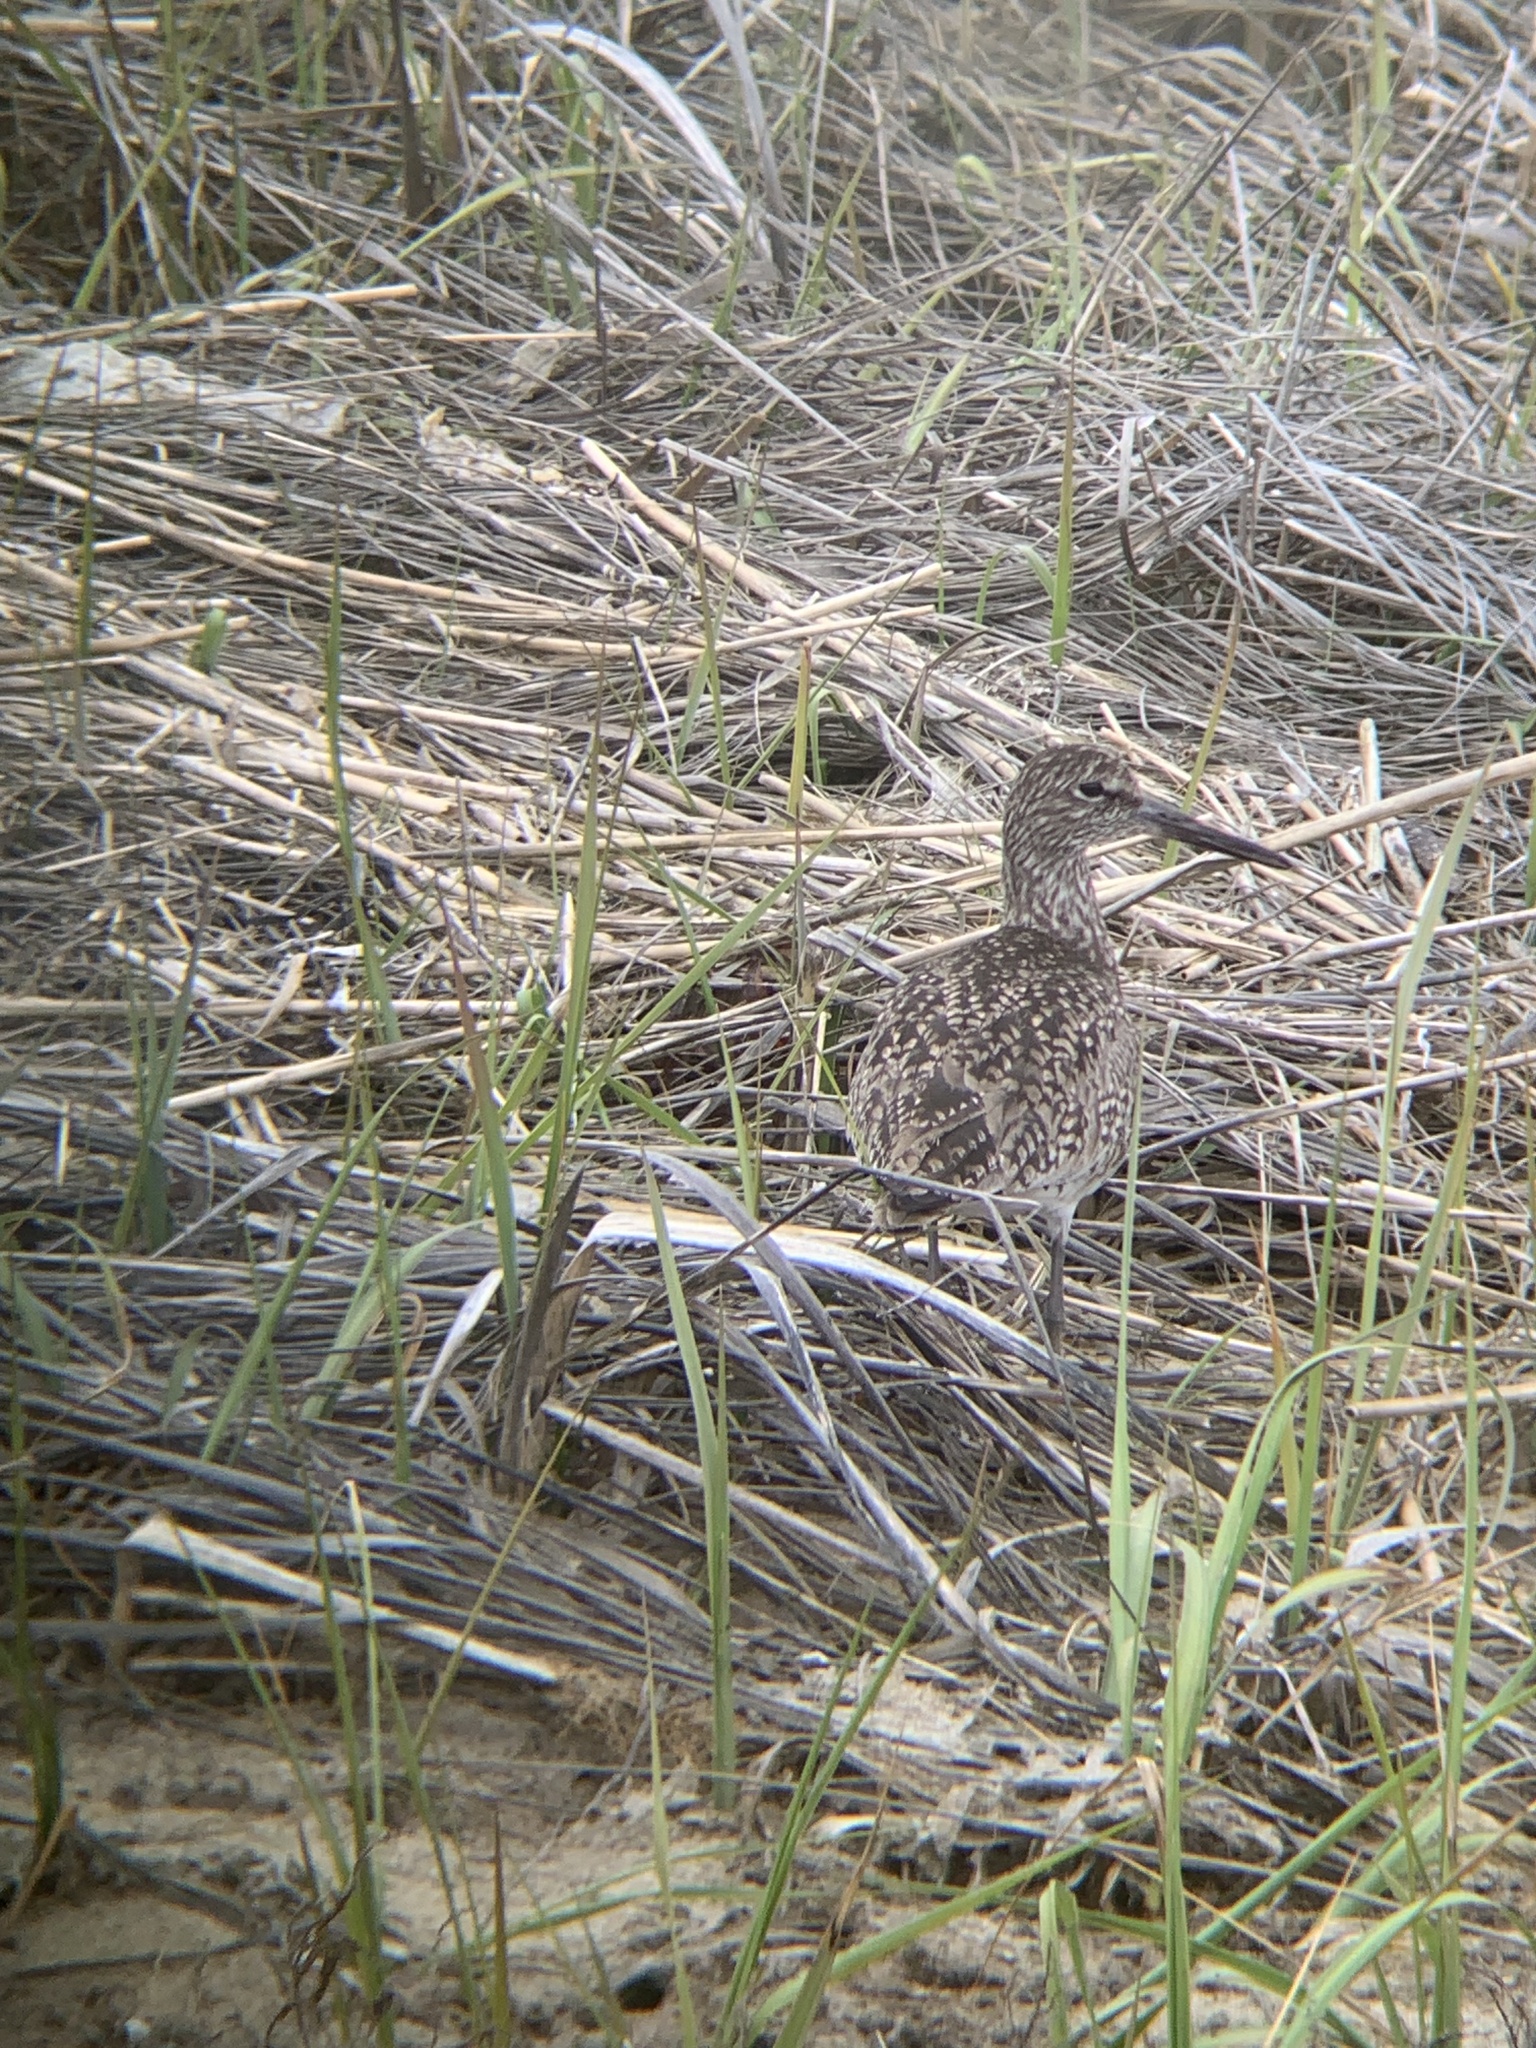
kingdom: Animalia
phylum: Chordata
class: Aves
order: Charadriiformes
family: Scolopacidae
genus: Tringa
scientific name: Tringa semipalmata
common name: Willet
